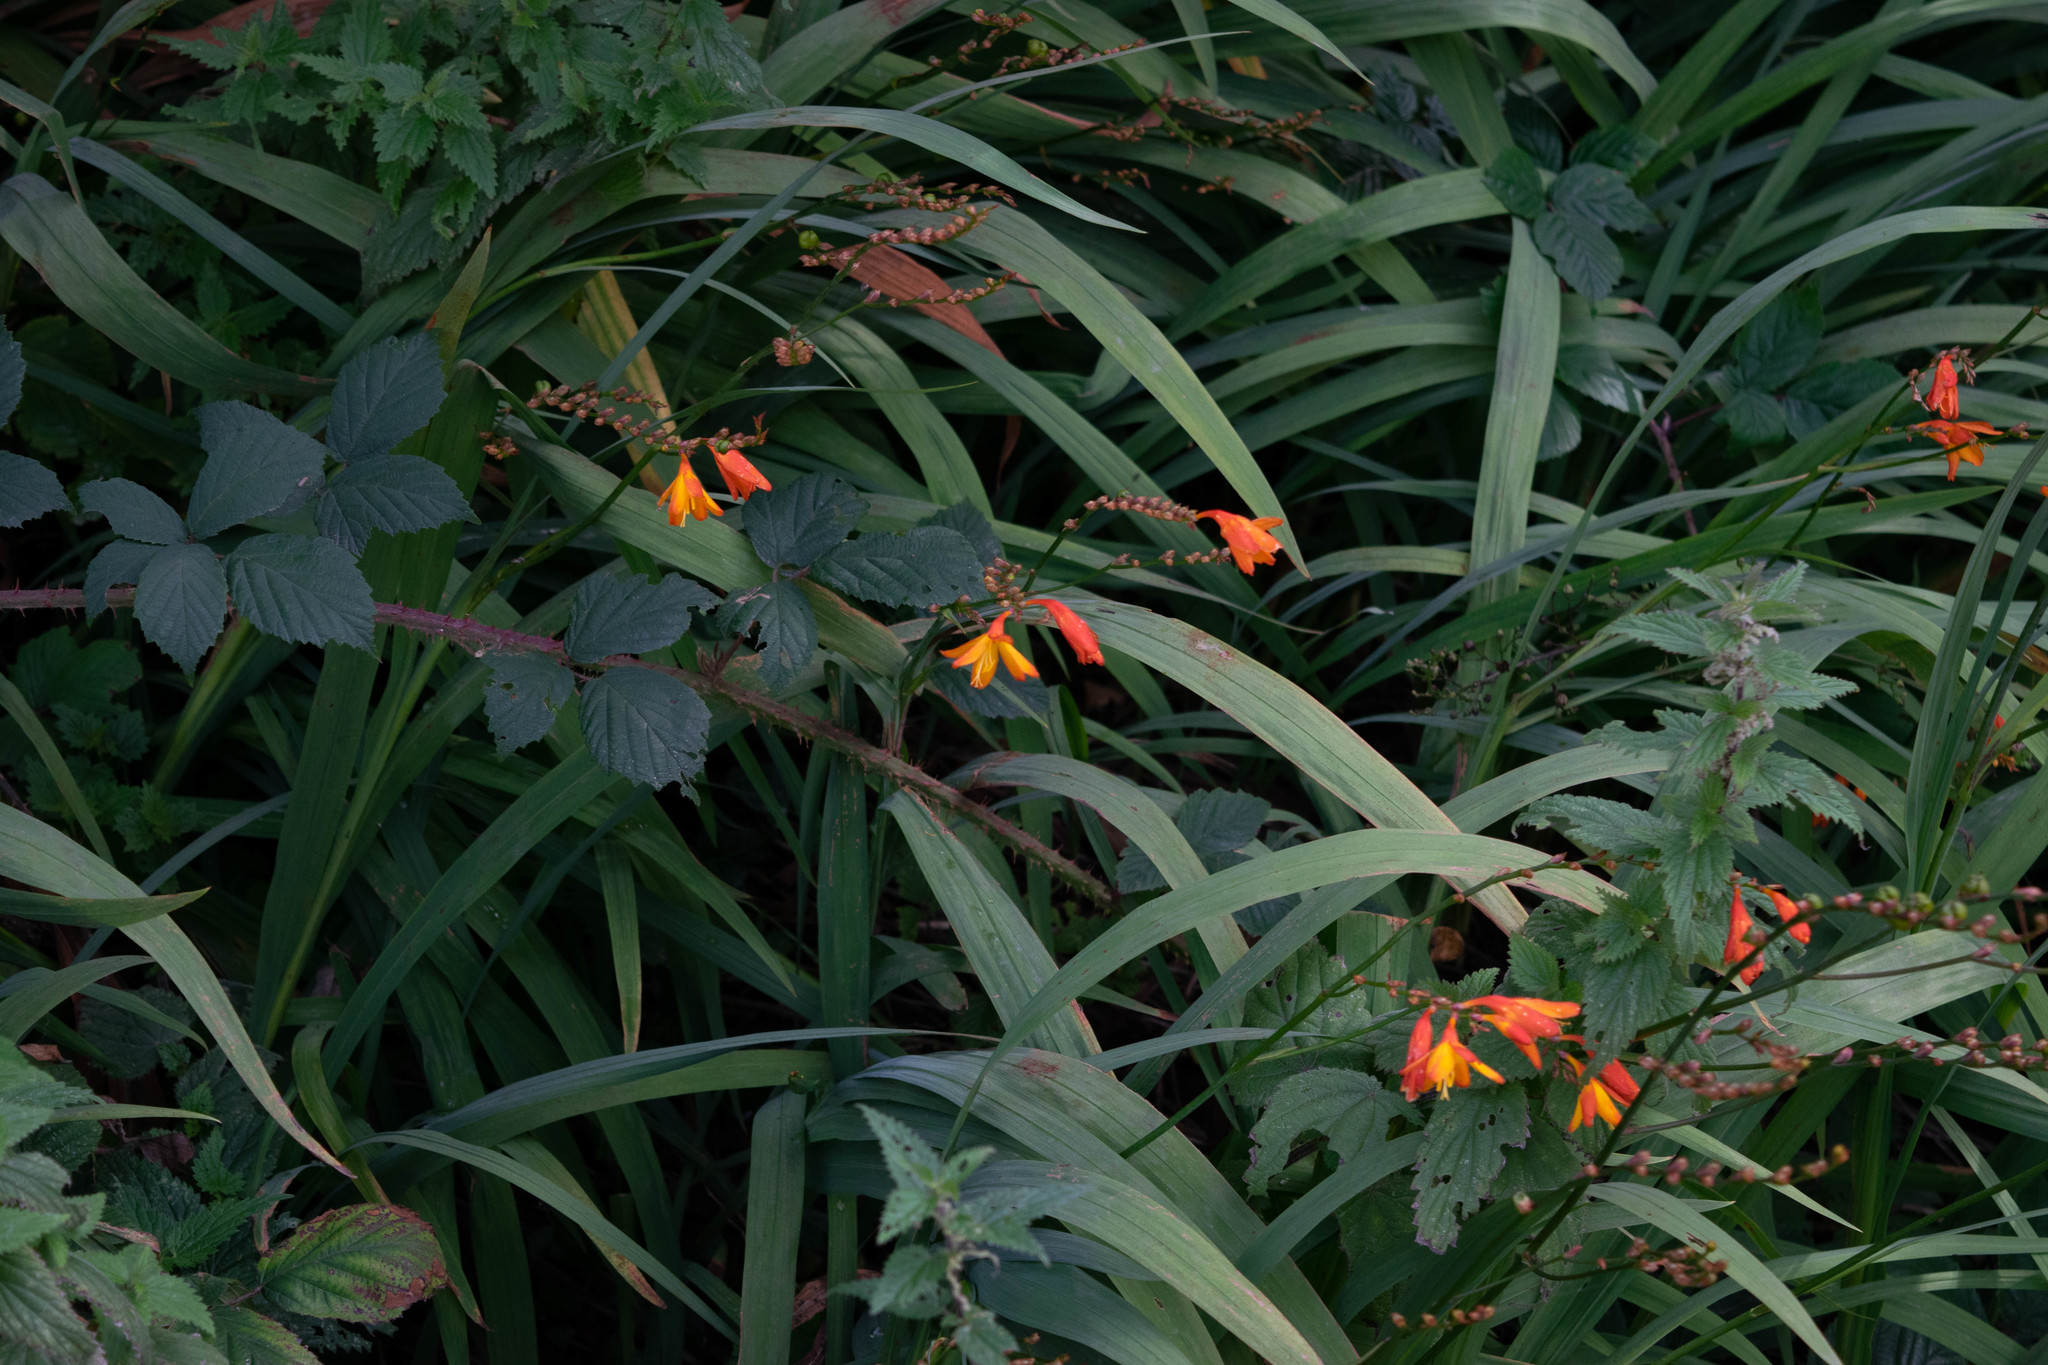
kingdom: Plantae
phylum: Tracheophyta
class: Liliopsida
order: Asparagales
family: Iridaceae
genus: Crocosmia
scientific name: Crocosmia crocosmiiflora
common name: Montbretia
